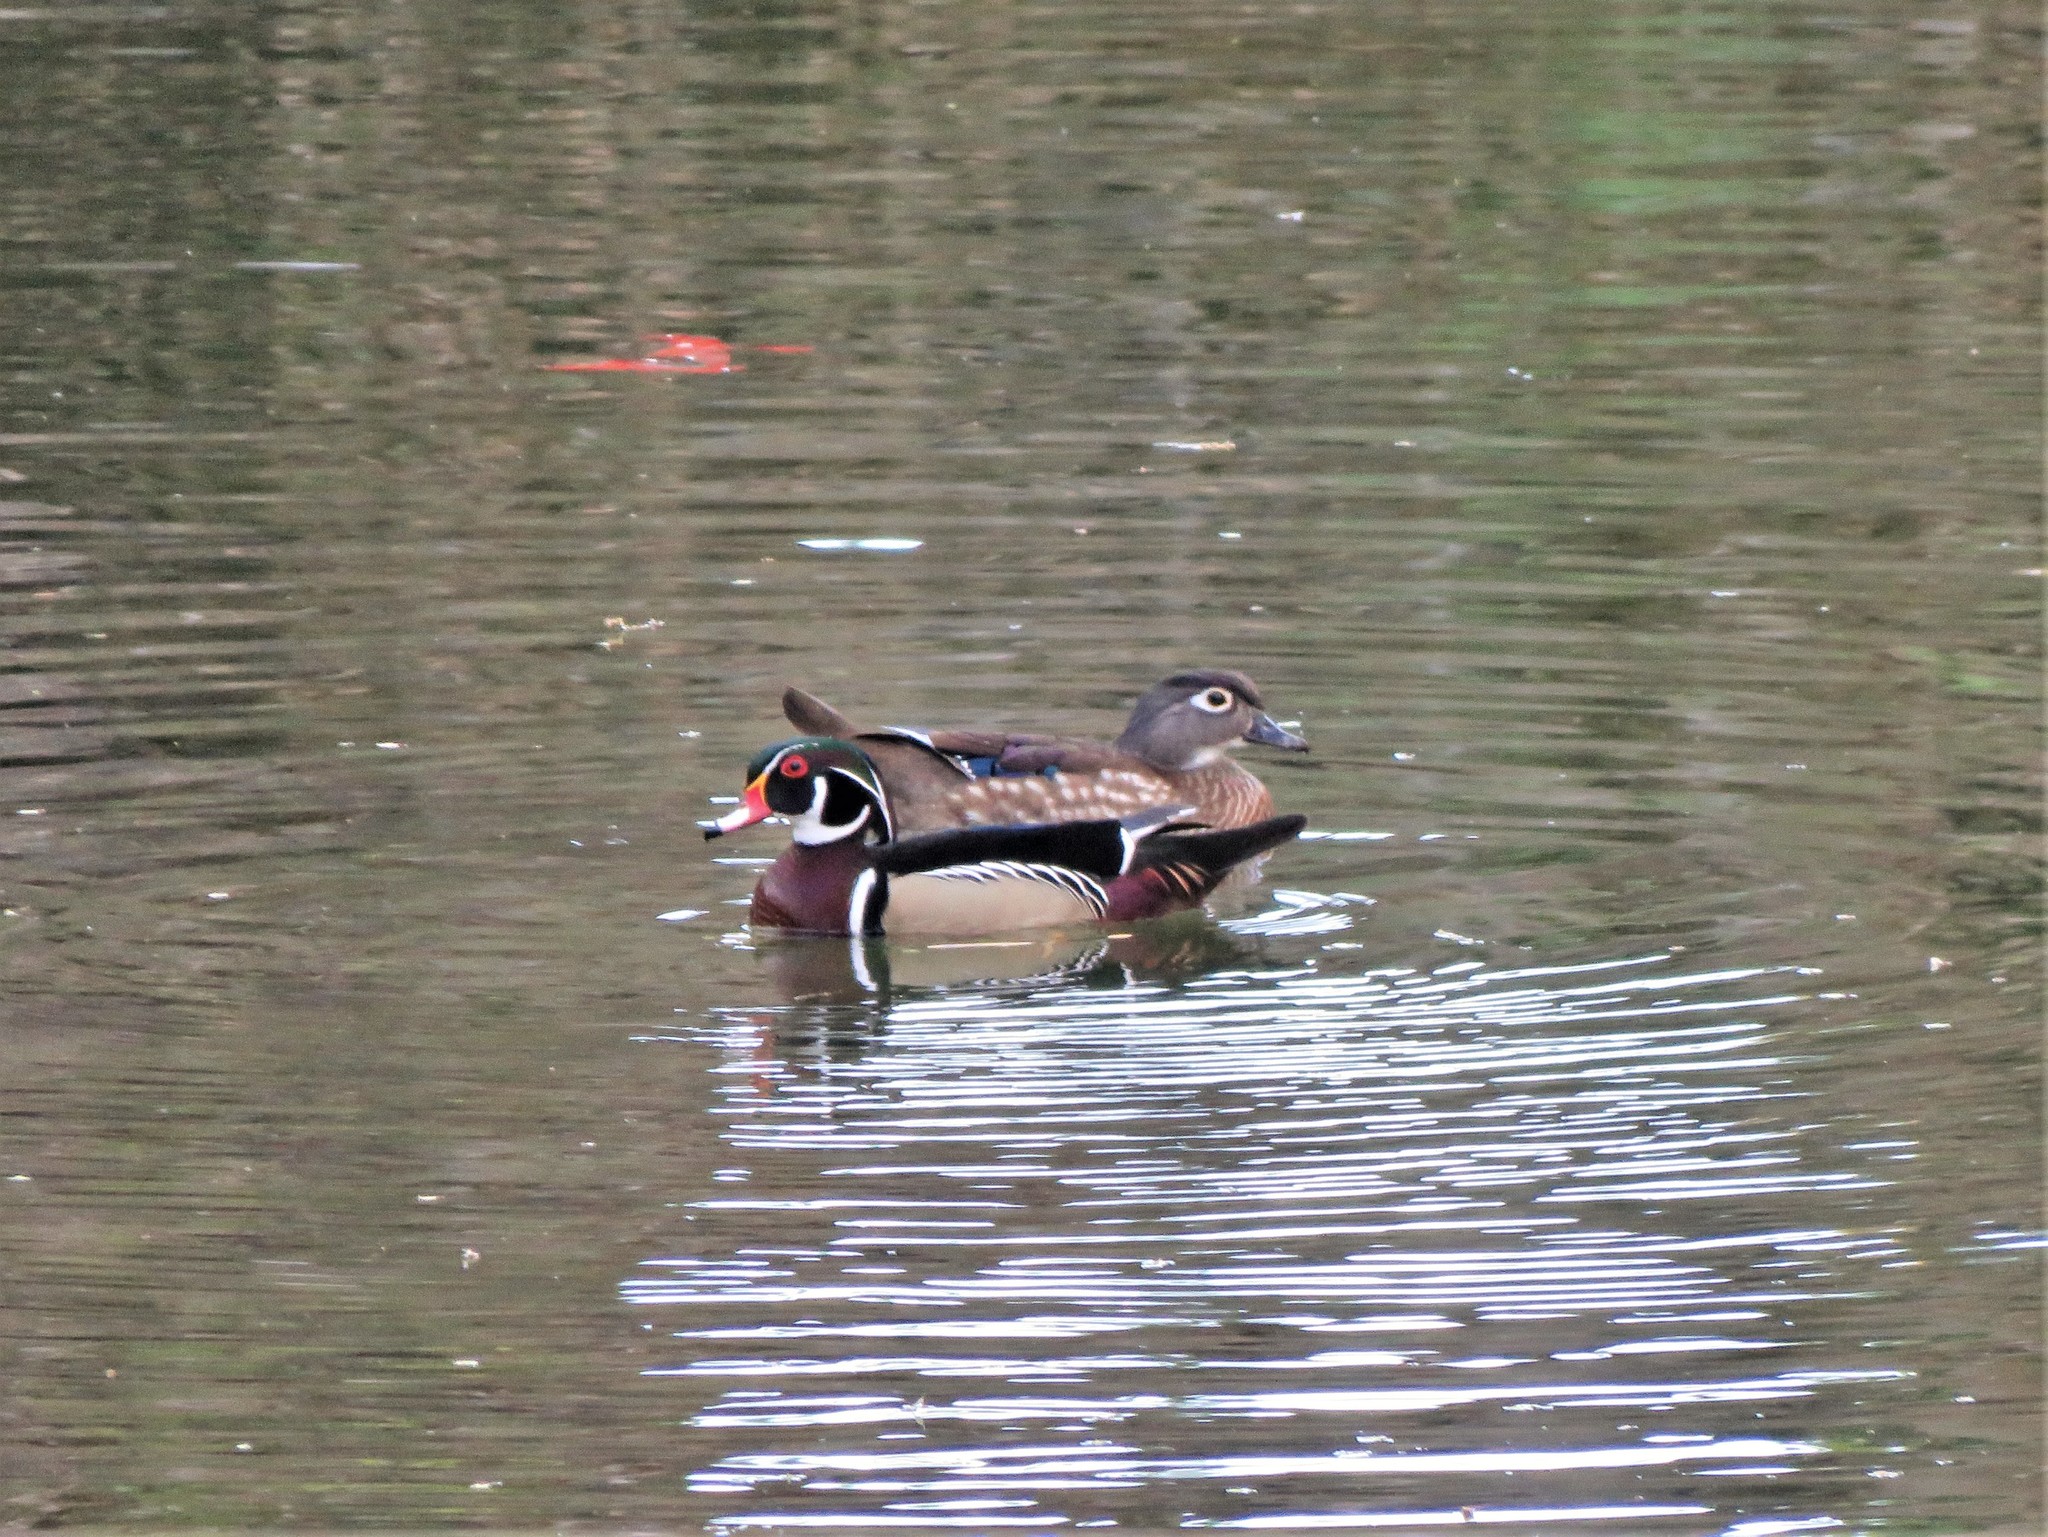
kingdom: Animalia
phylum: Chordata
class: Aves
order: Anseriformes
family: Anatidae
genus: Aix
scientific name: Aix sponsa
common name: Wood duck
